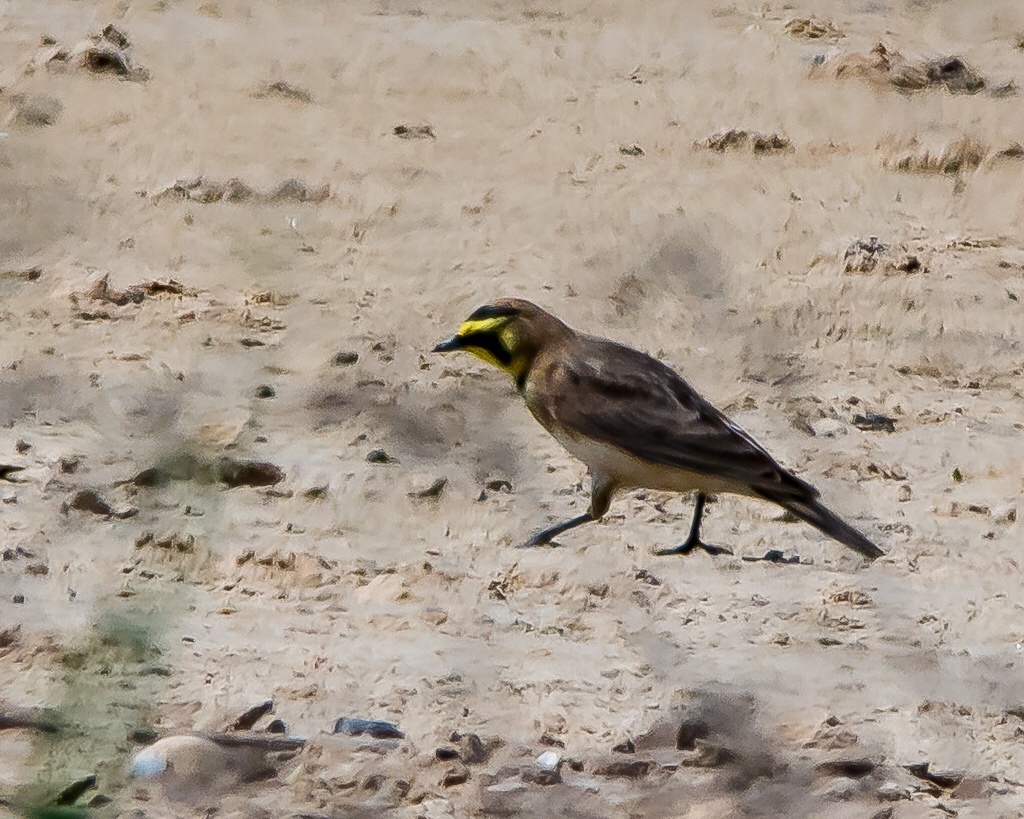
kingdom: Animalia
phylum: Chordata
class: Aves
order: Passeriformes
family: Alaudidae
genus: Eremophila
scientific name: Eremophila alpestris
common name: Horned lark
